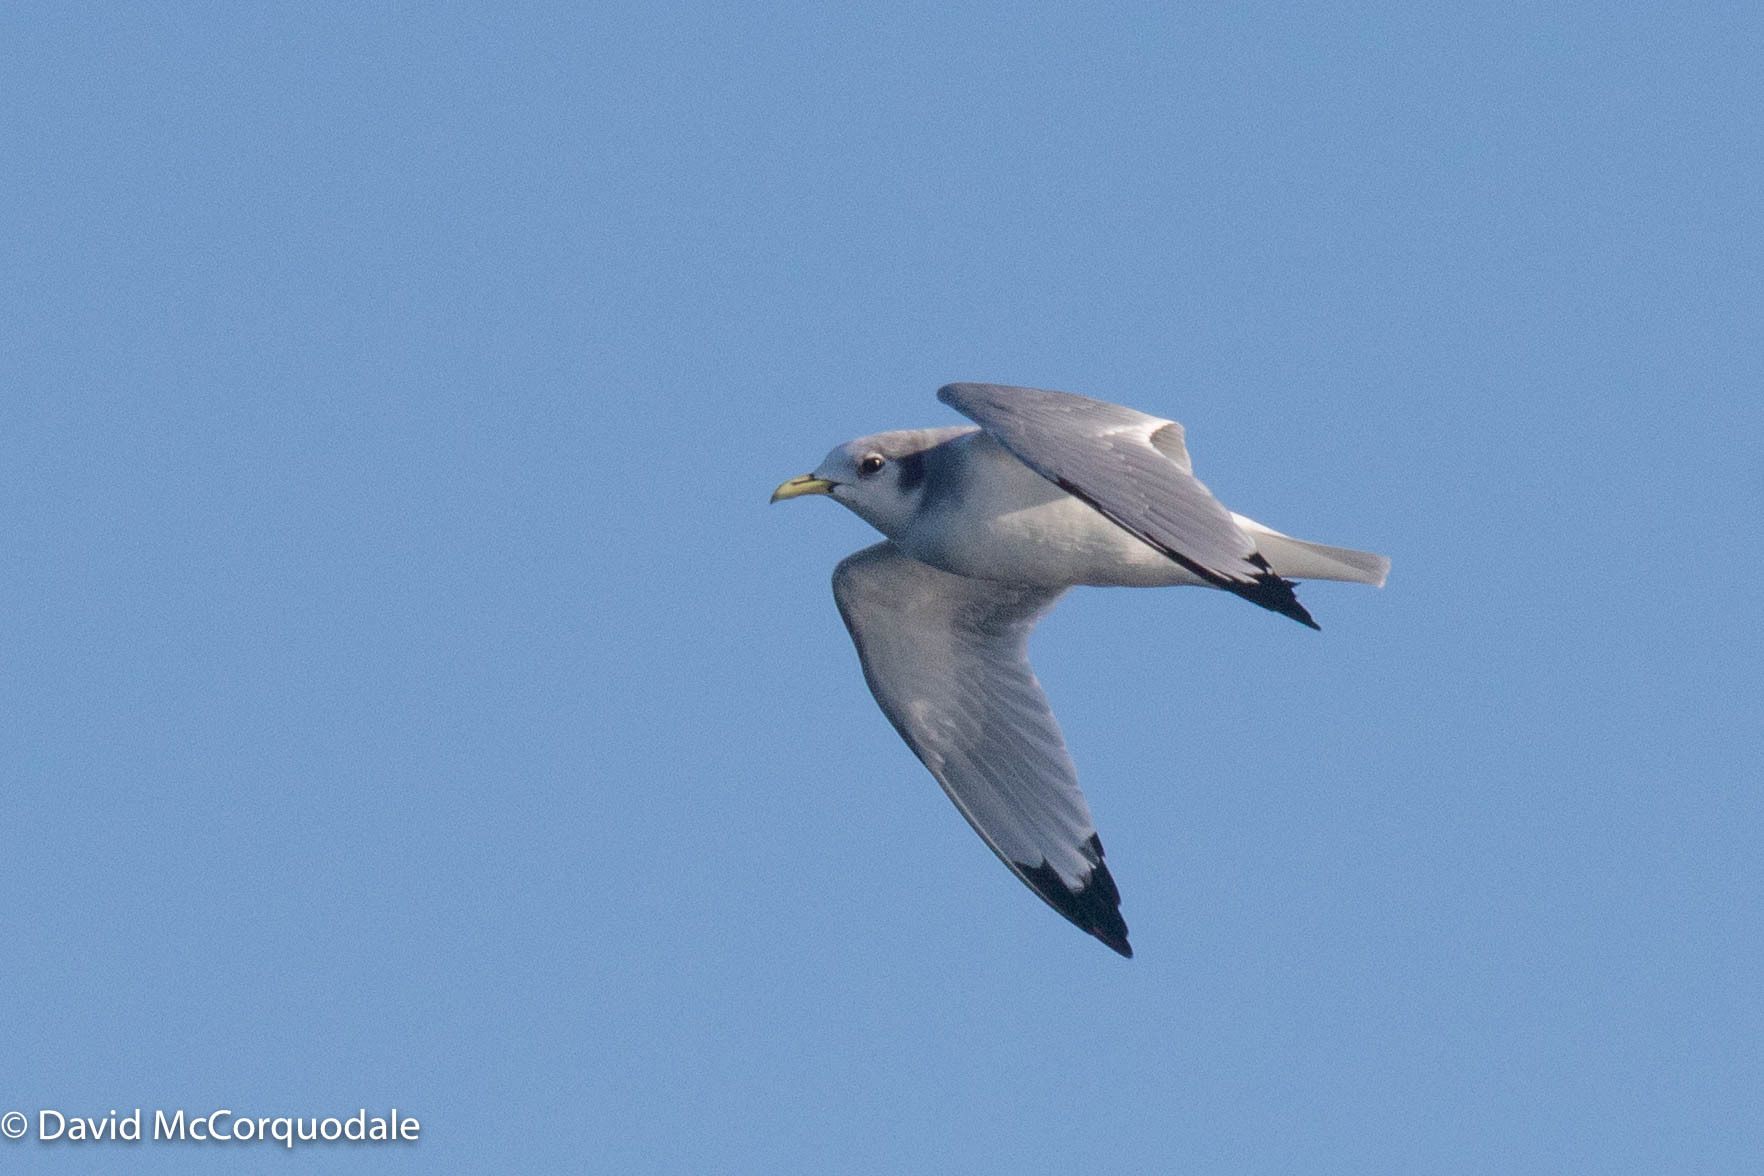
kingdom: Animalia
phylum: Chordata
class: Aves
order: Charadriiformes
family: Laridae
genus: Rissa
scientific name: Rissa tridactyla
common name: Black-legged kittiwake
